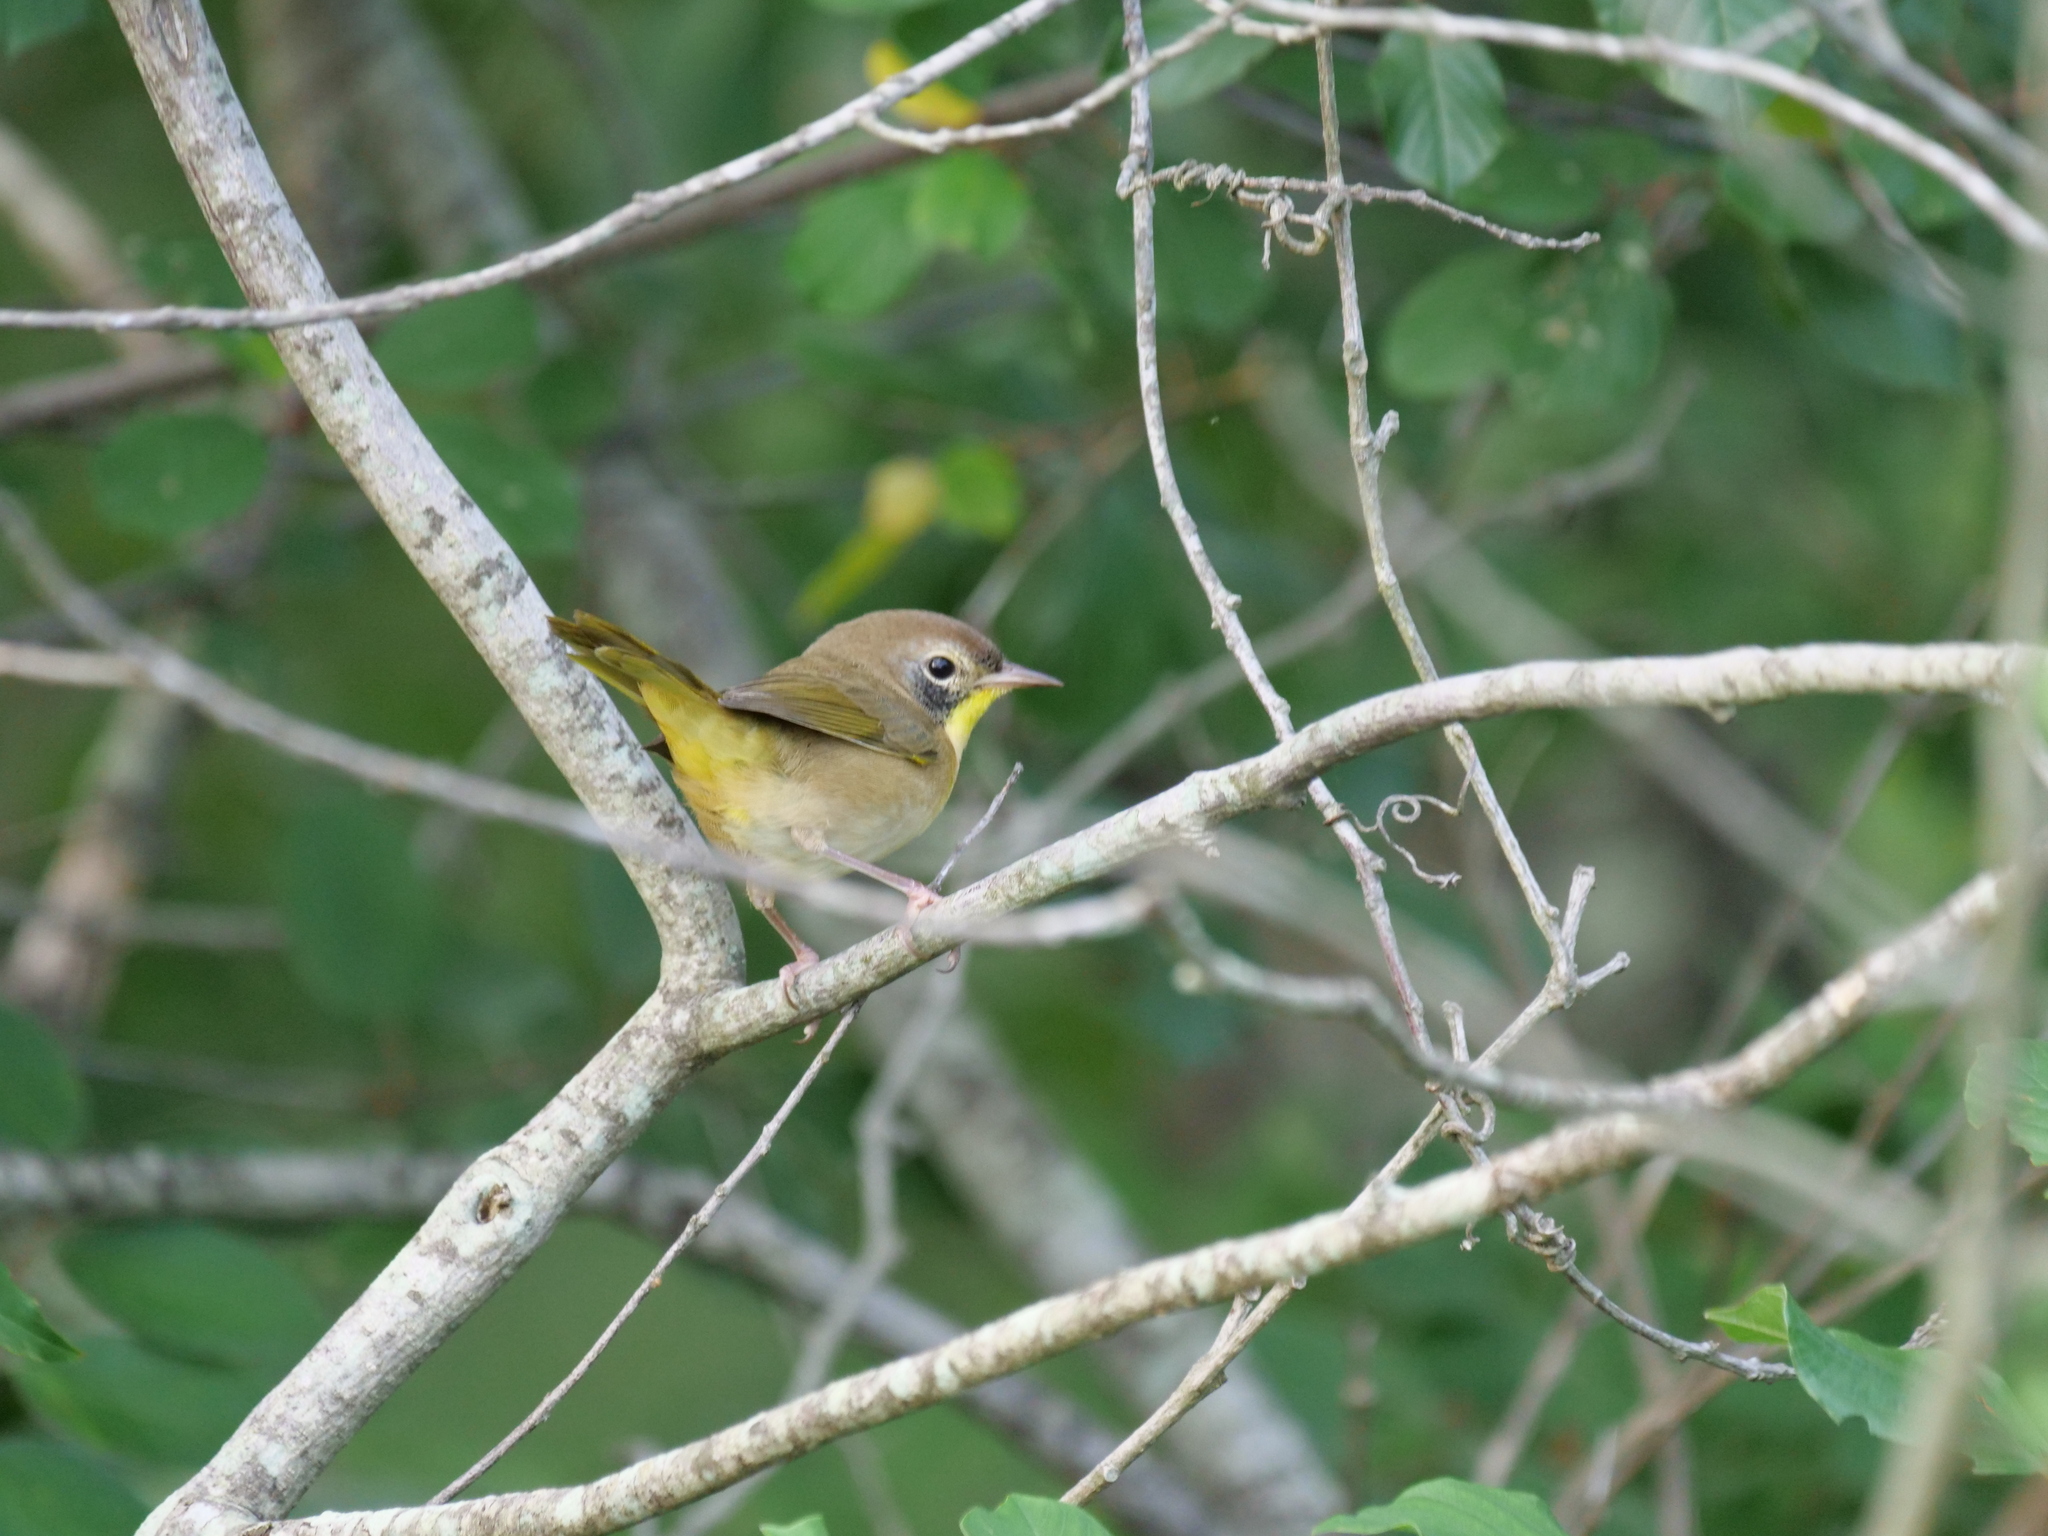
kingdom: Animalia
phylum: Chordata
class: Aves
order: Passeriformes
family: Parulidae
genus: Geothlypis
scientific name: Geothlypis trichas
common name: Common yellowthroat
